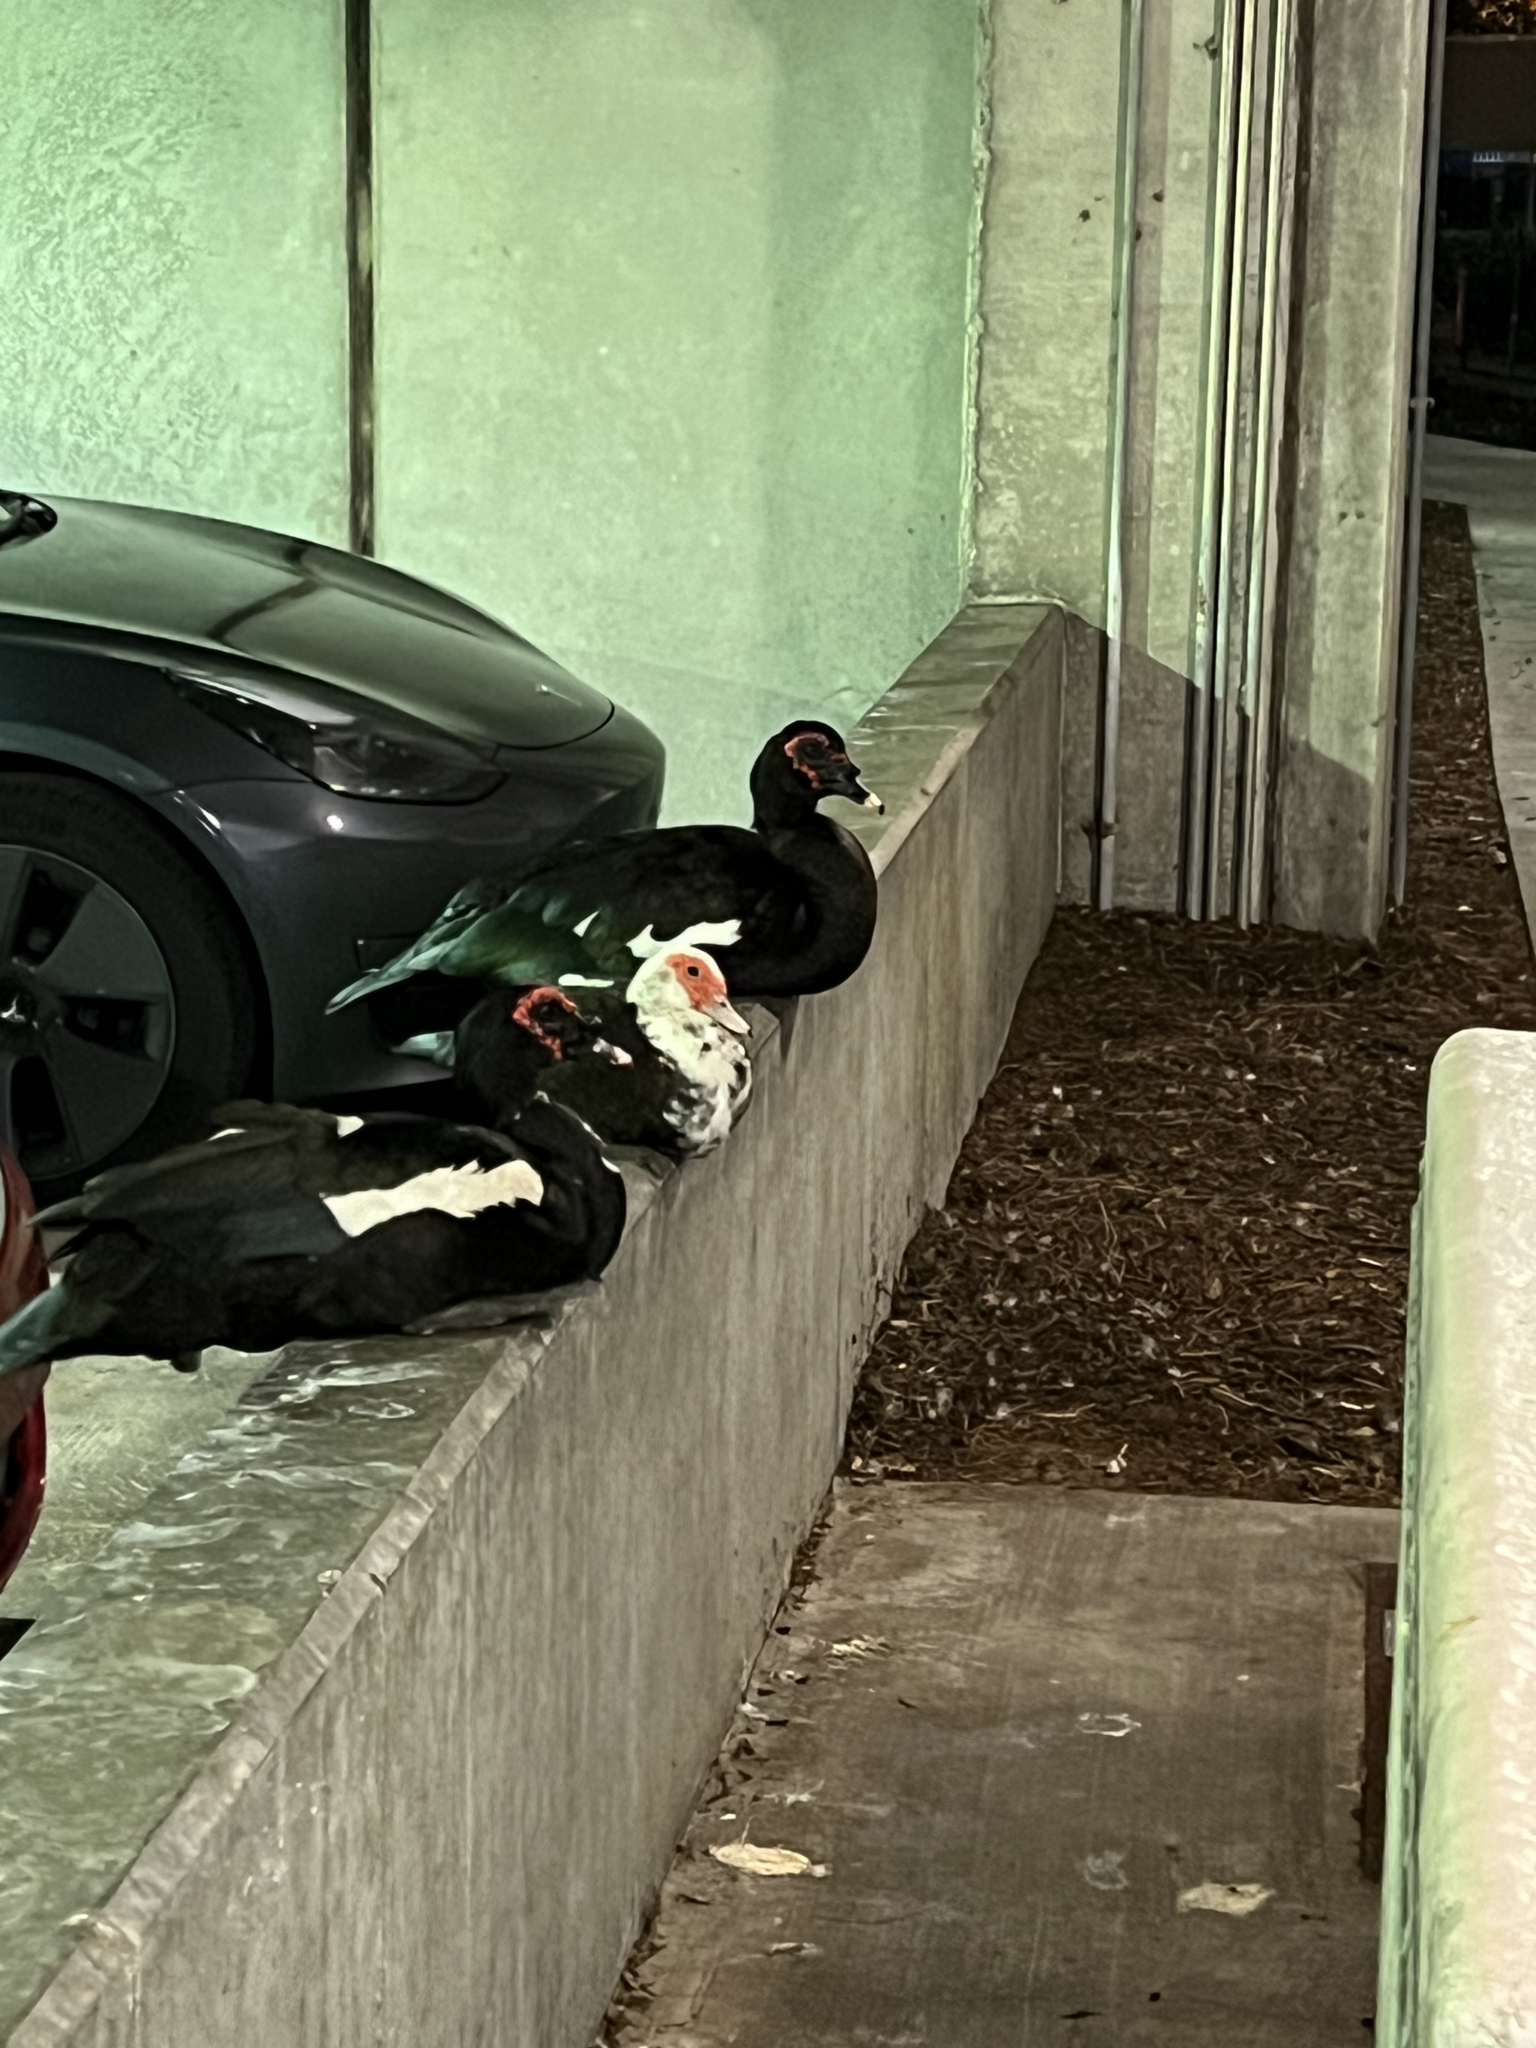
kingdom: Animalia
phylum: Chordata
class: Aves
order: Anseriformes
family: Anatidae
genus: Cairina
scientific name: Cairina moschata
